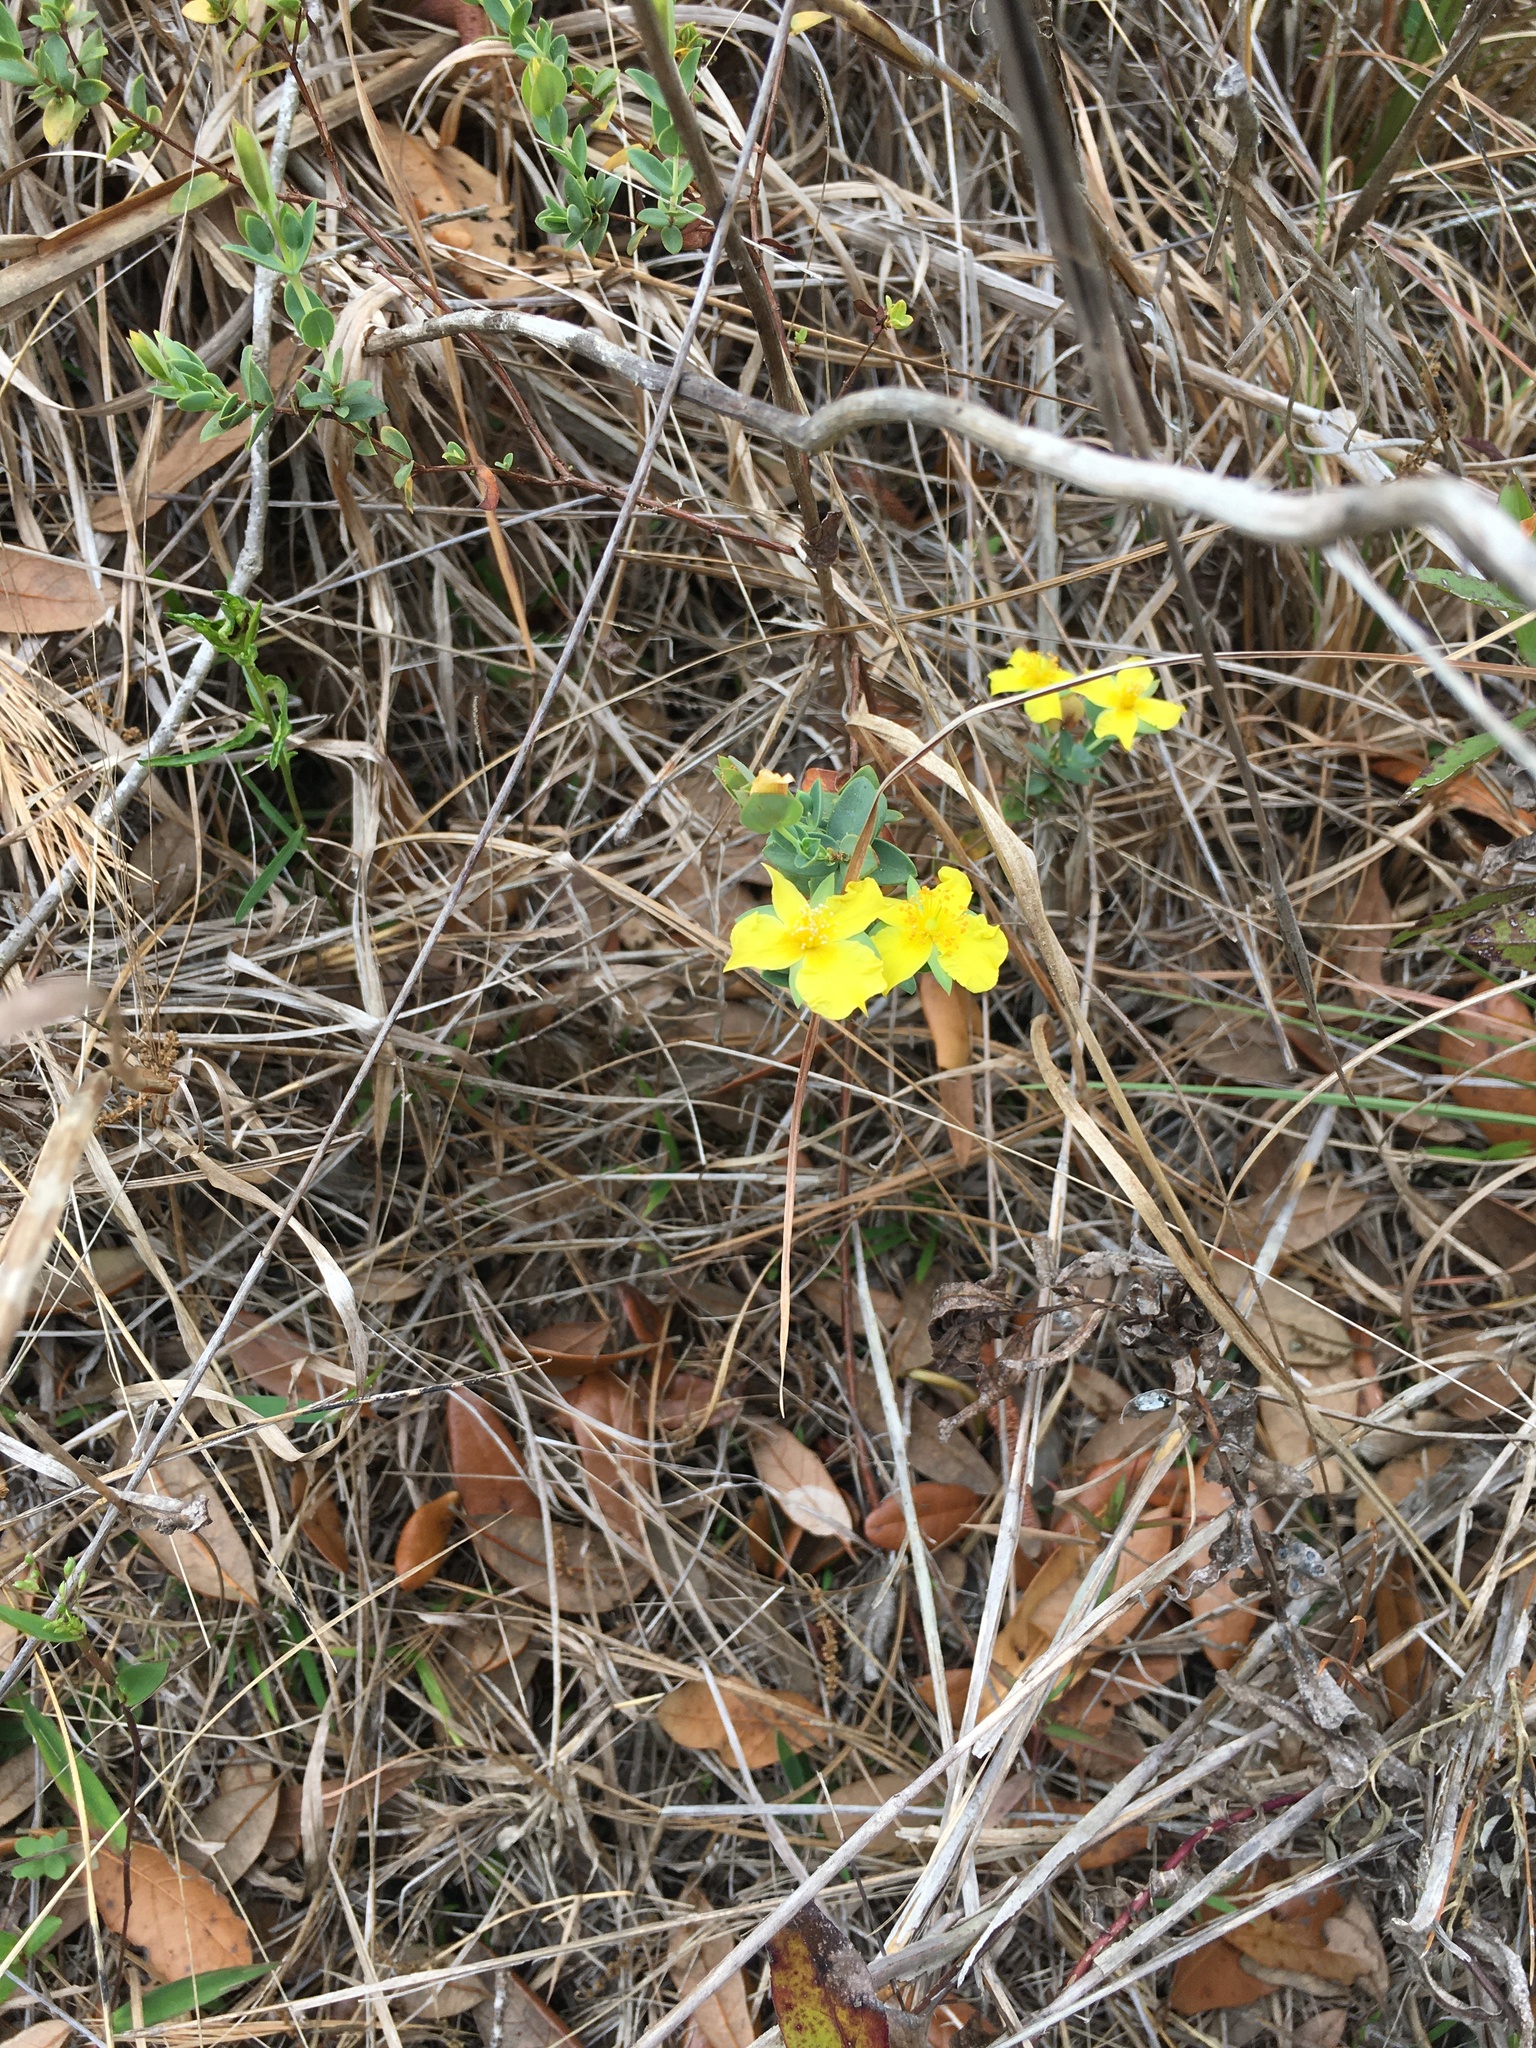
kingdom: Plantae
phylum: Tracheophyta
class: Magnoliopsida
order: Malpighiales
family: Hypericaceae
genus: Hypericum
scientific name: Hypericum tetrapetalum
